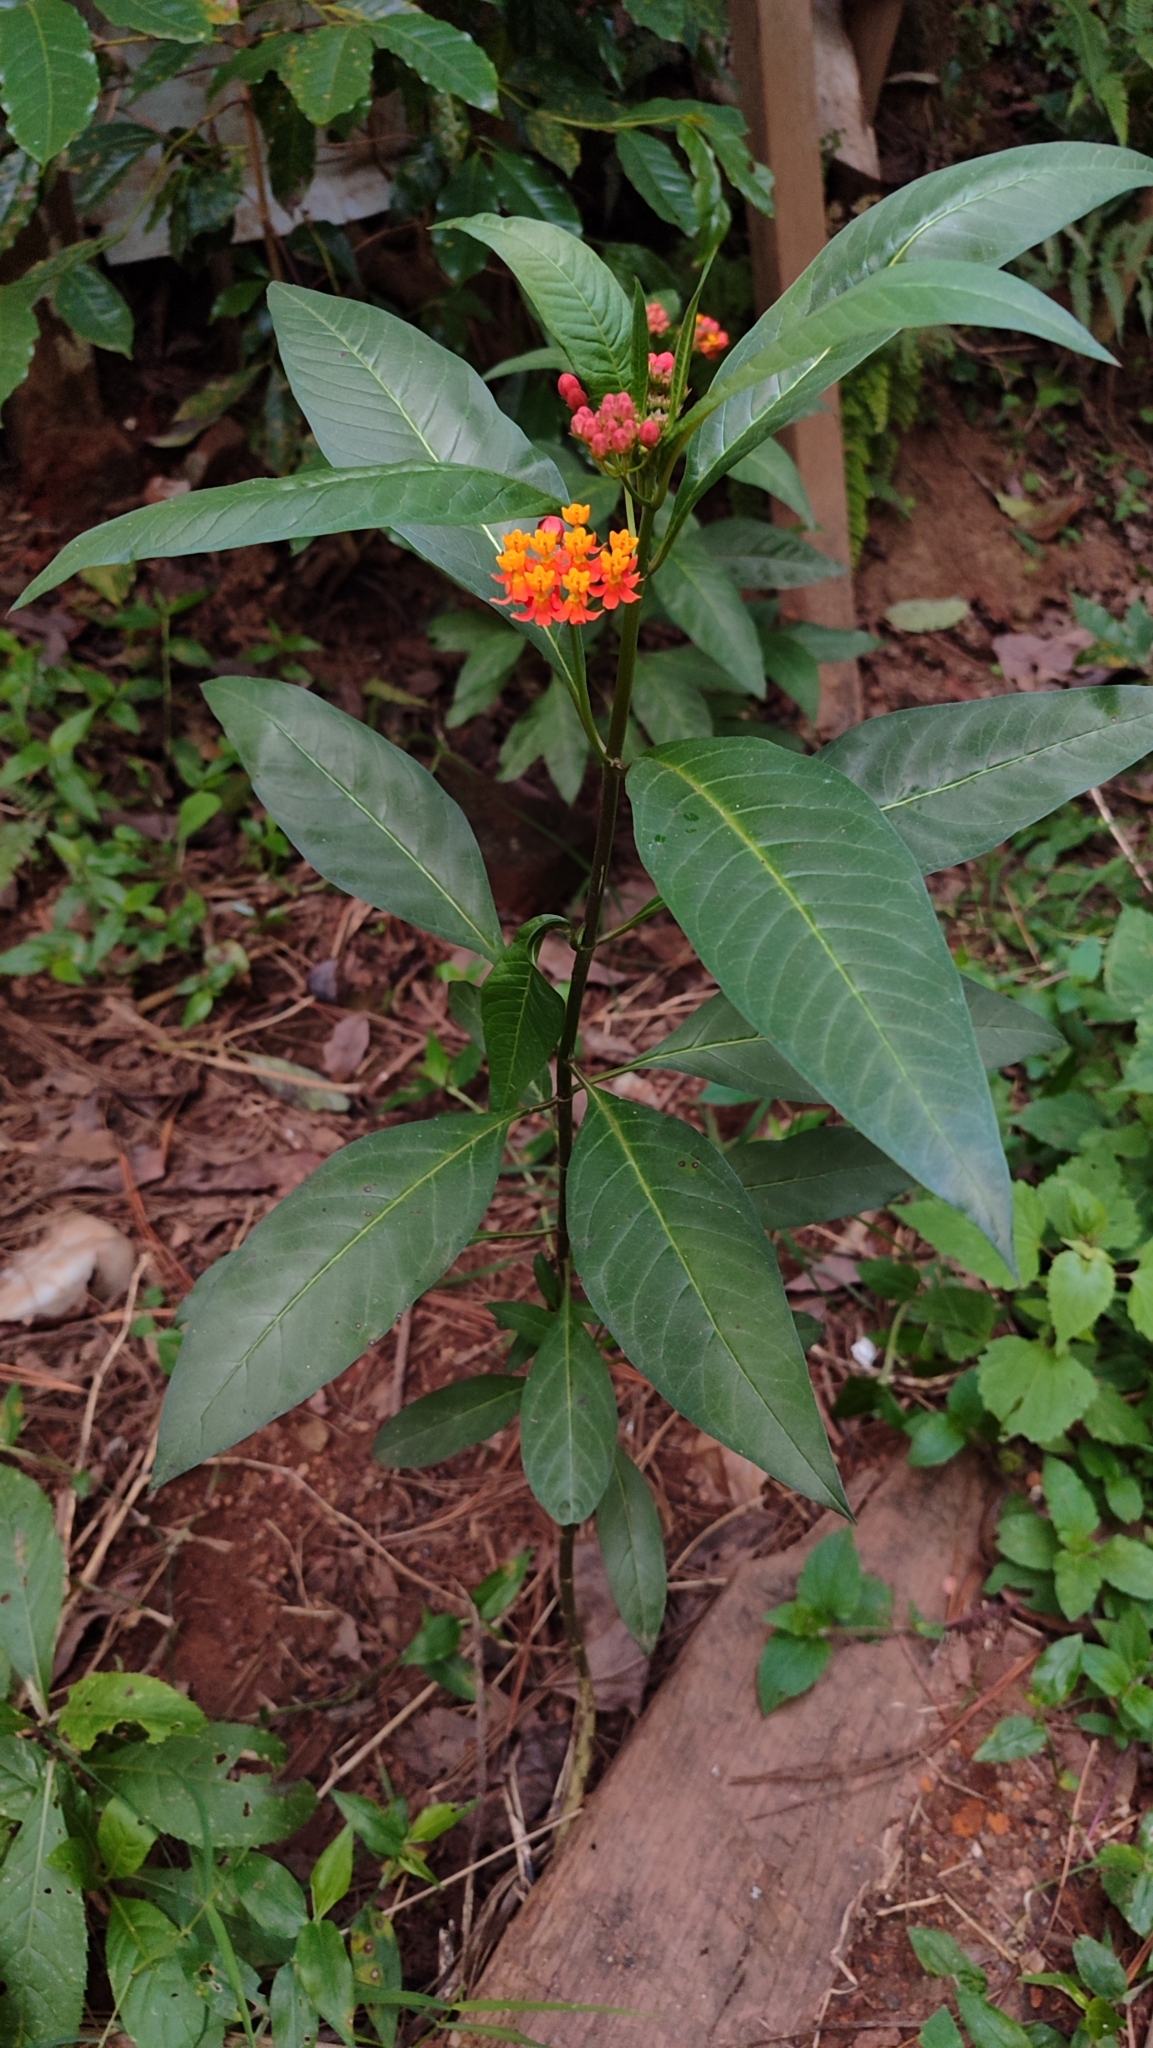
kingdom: Plantae
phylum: Tracheophyta
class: Magnoliopsida
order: Gentianales
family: Apocynaceae
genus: Asclepias
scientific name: Asclepias curassavica
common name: Bloodflower
